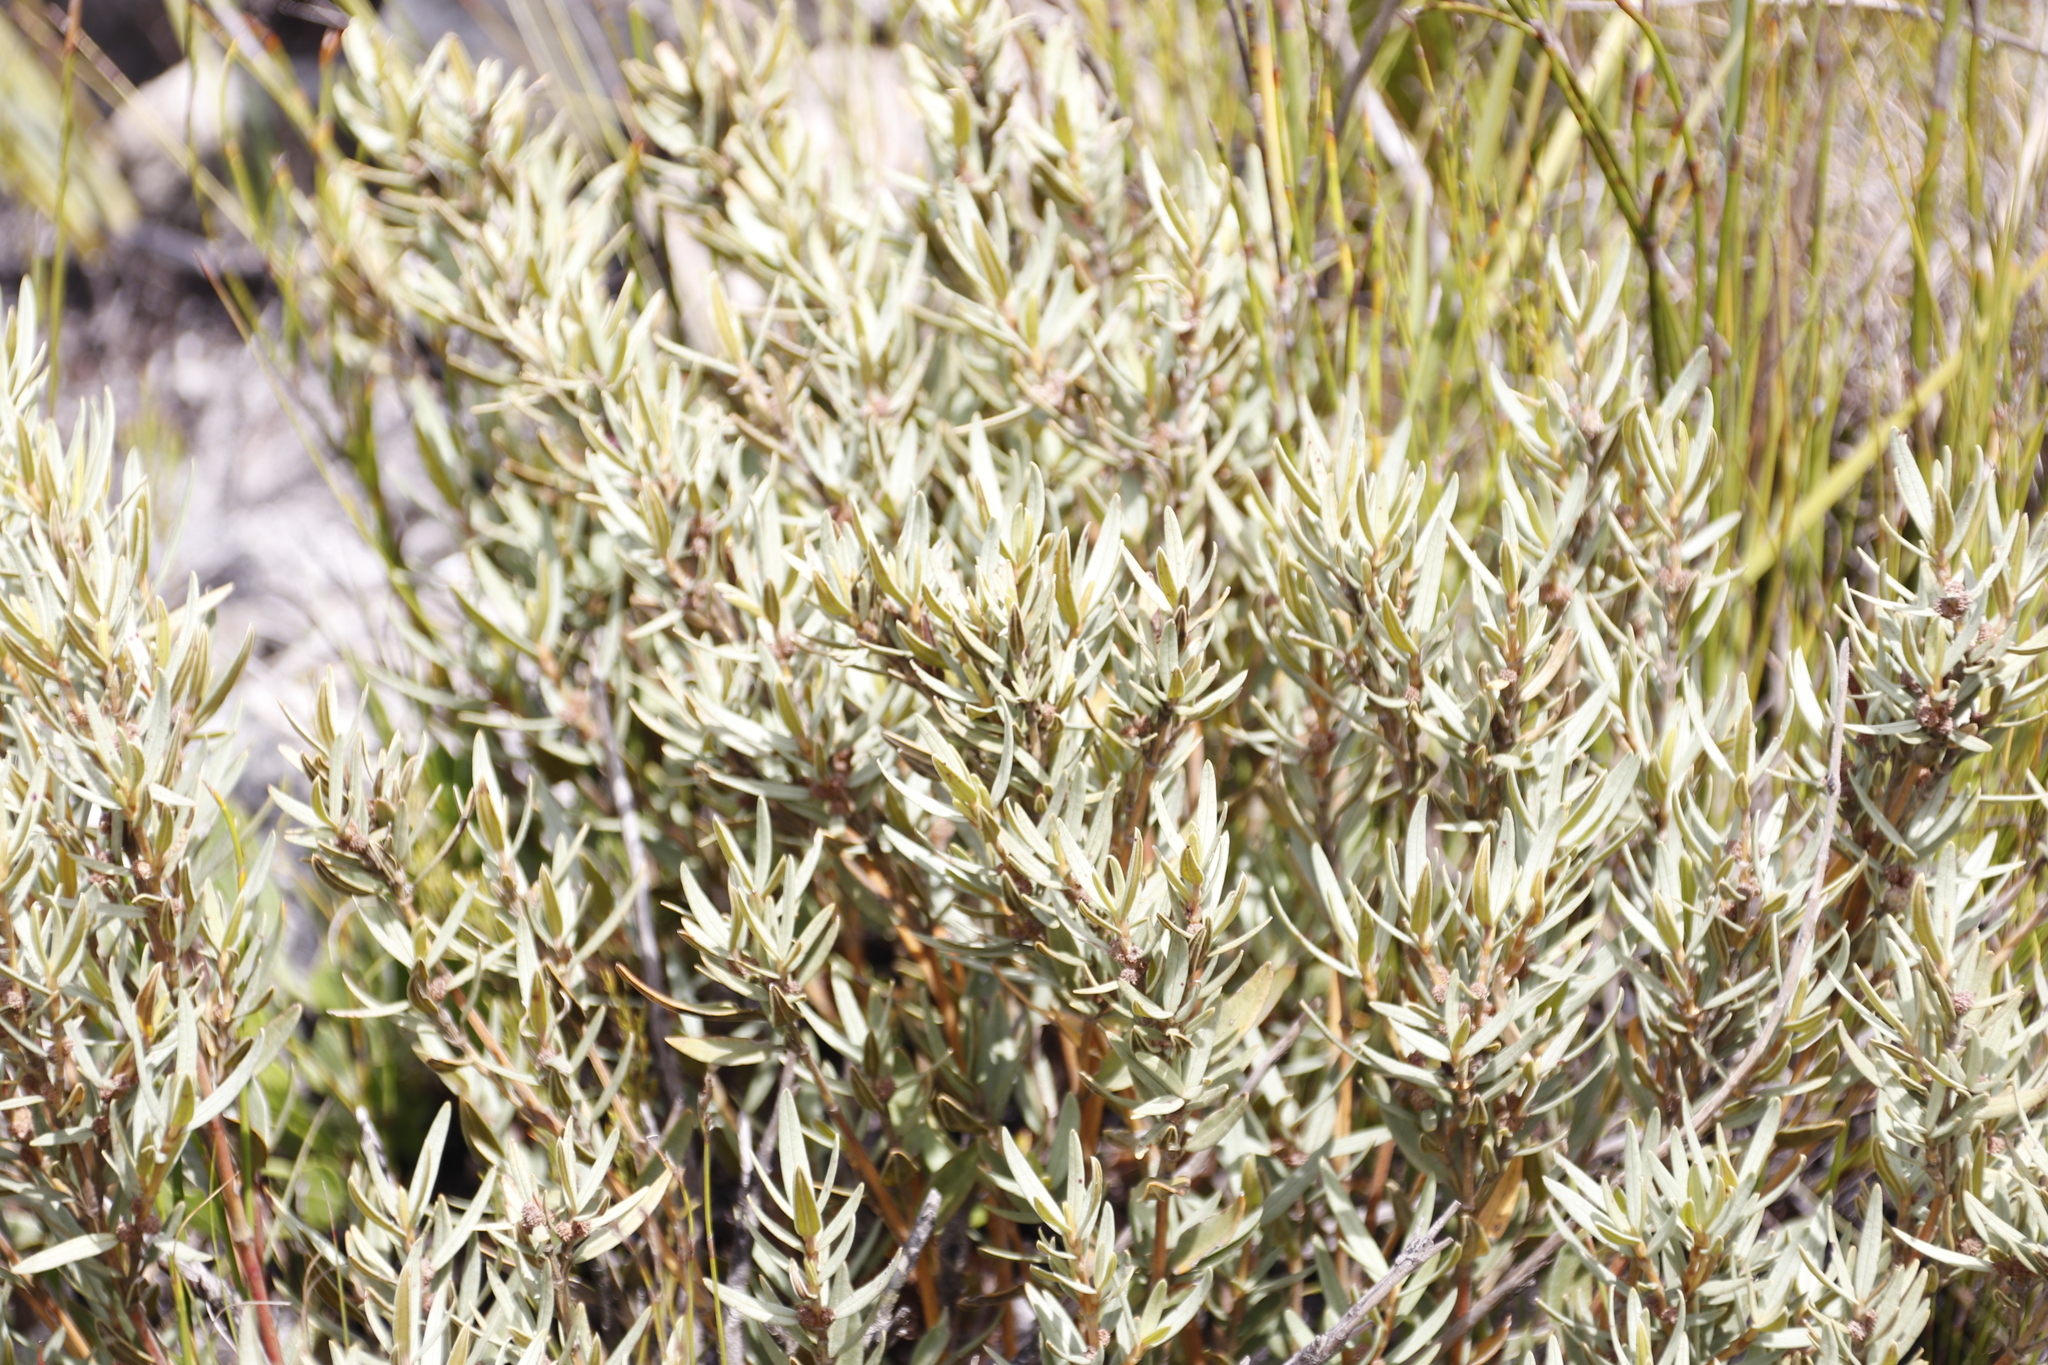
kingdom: Plantae
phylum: Tracheophyta
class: Magnoliopsida
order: Cornales
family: Grubbiaceae
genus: Grubbia
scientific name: Grubbia tomentosa
